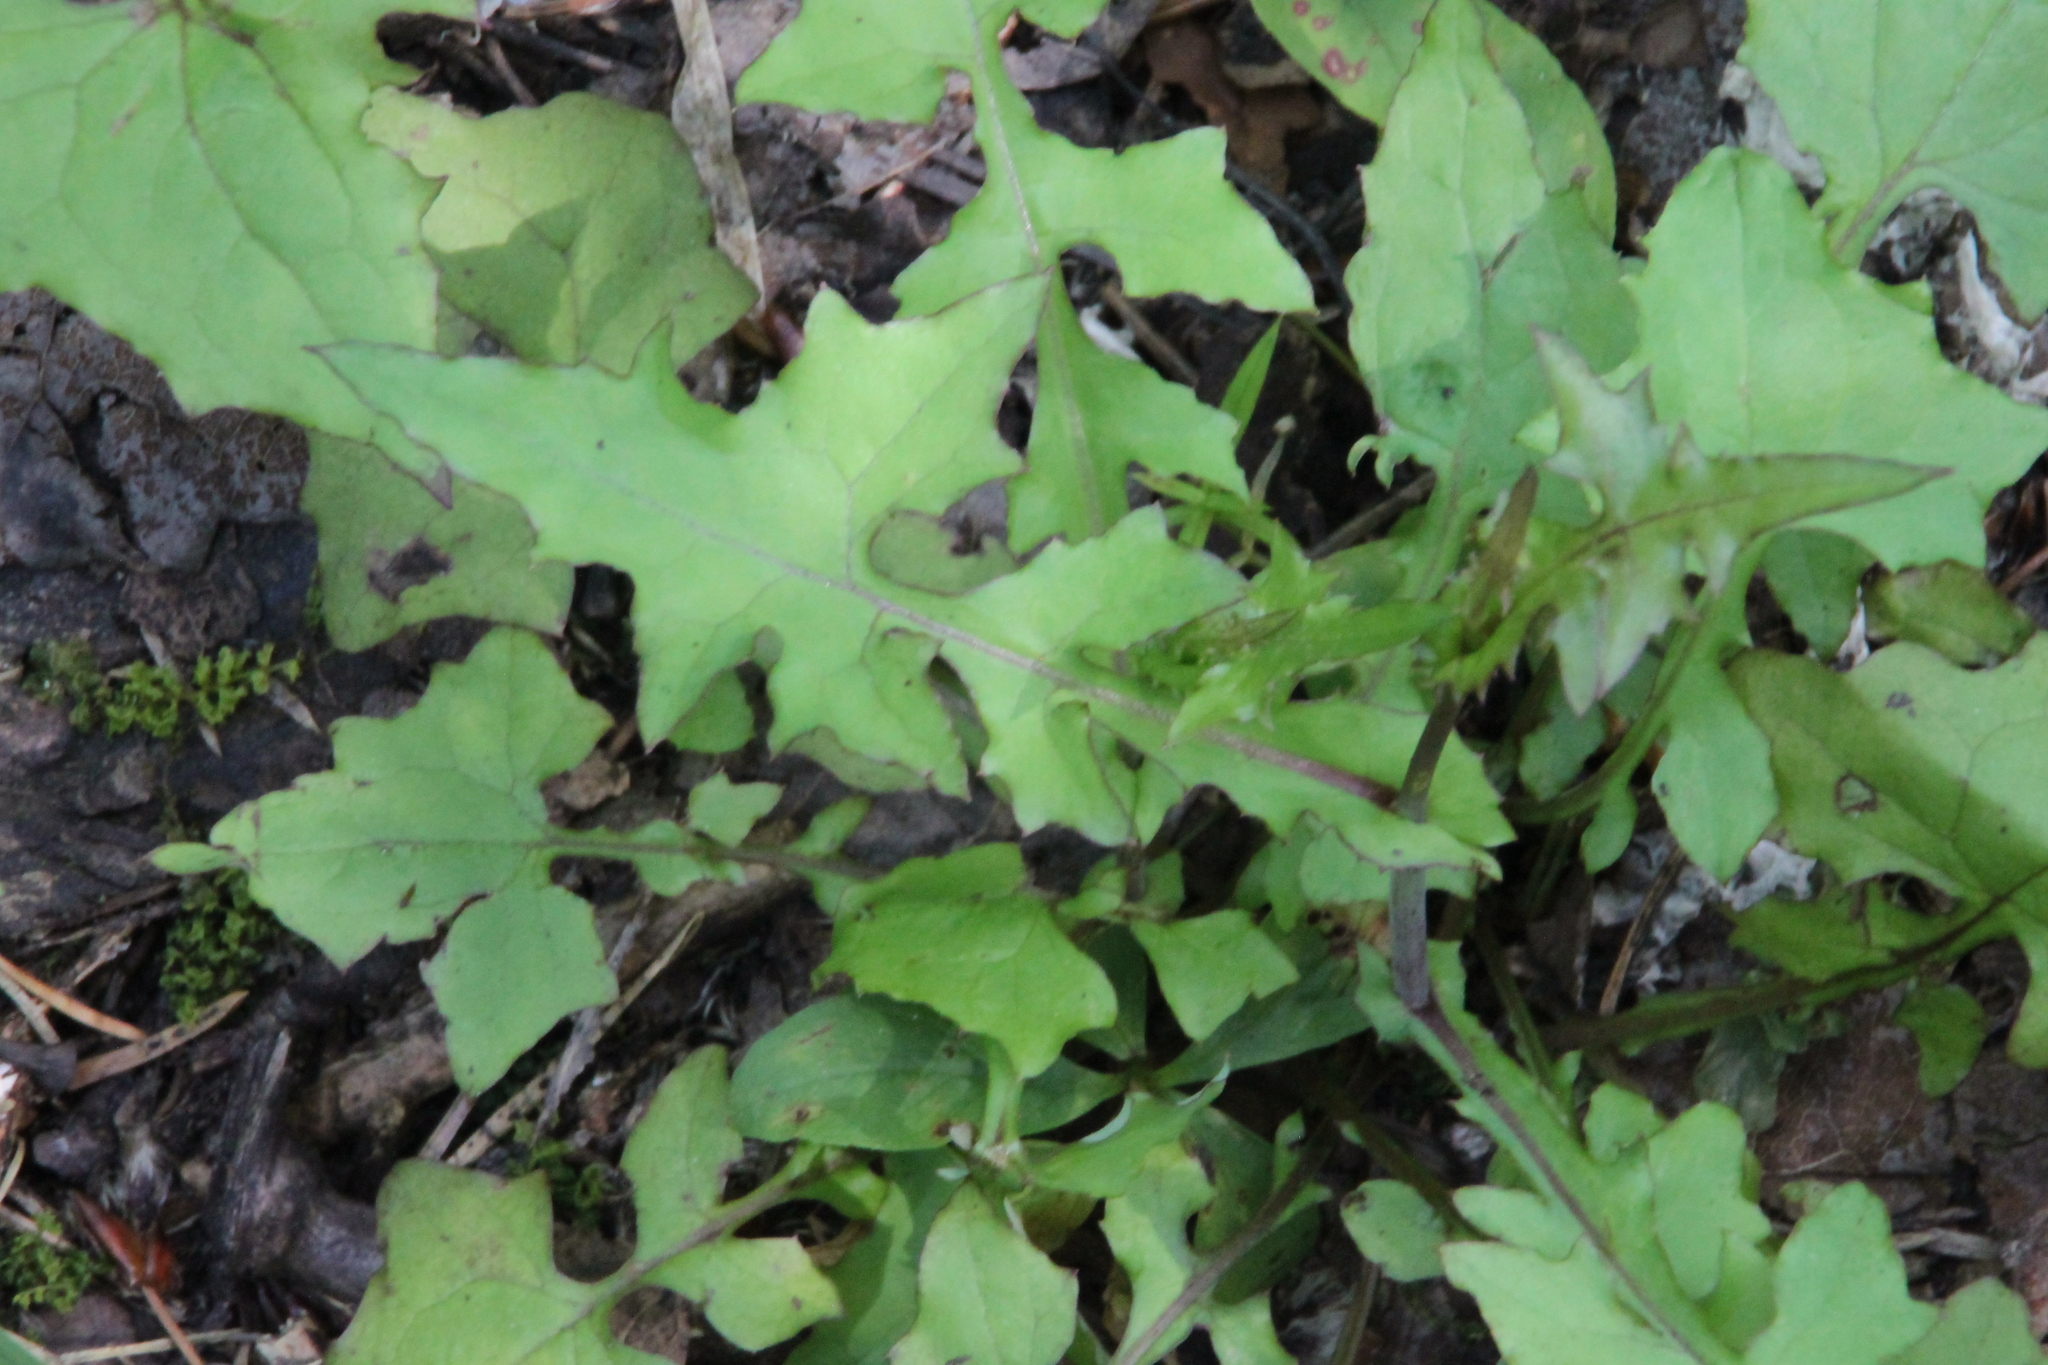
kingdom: Plantae
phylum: Tracheophyta
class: Magnoliopsida
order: Asterales
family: Asteraceae
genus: Mycelis
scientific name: Mycelis muralis
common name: Wall lettuce
